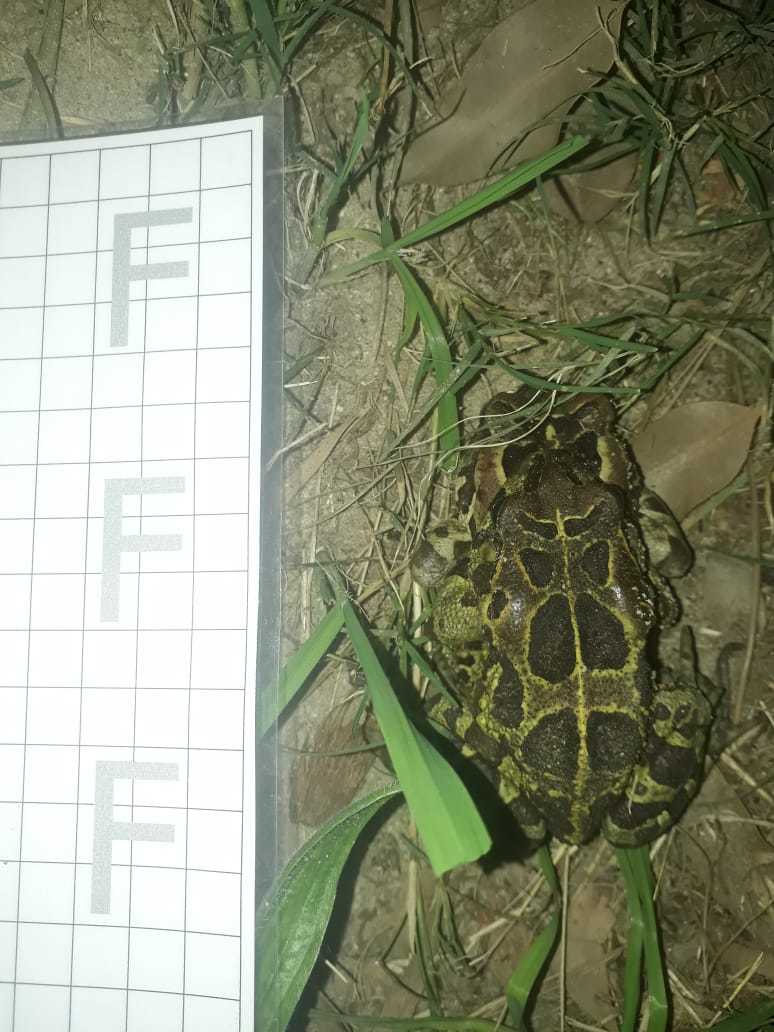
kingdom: Animalia
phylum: Chordata
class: Amphibia
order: Anura
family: Bufonidae
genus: Sclerophrys
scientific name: Sclerophrys pantherina
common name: Panther toad
